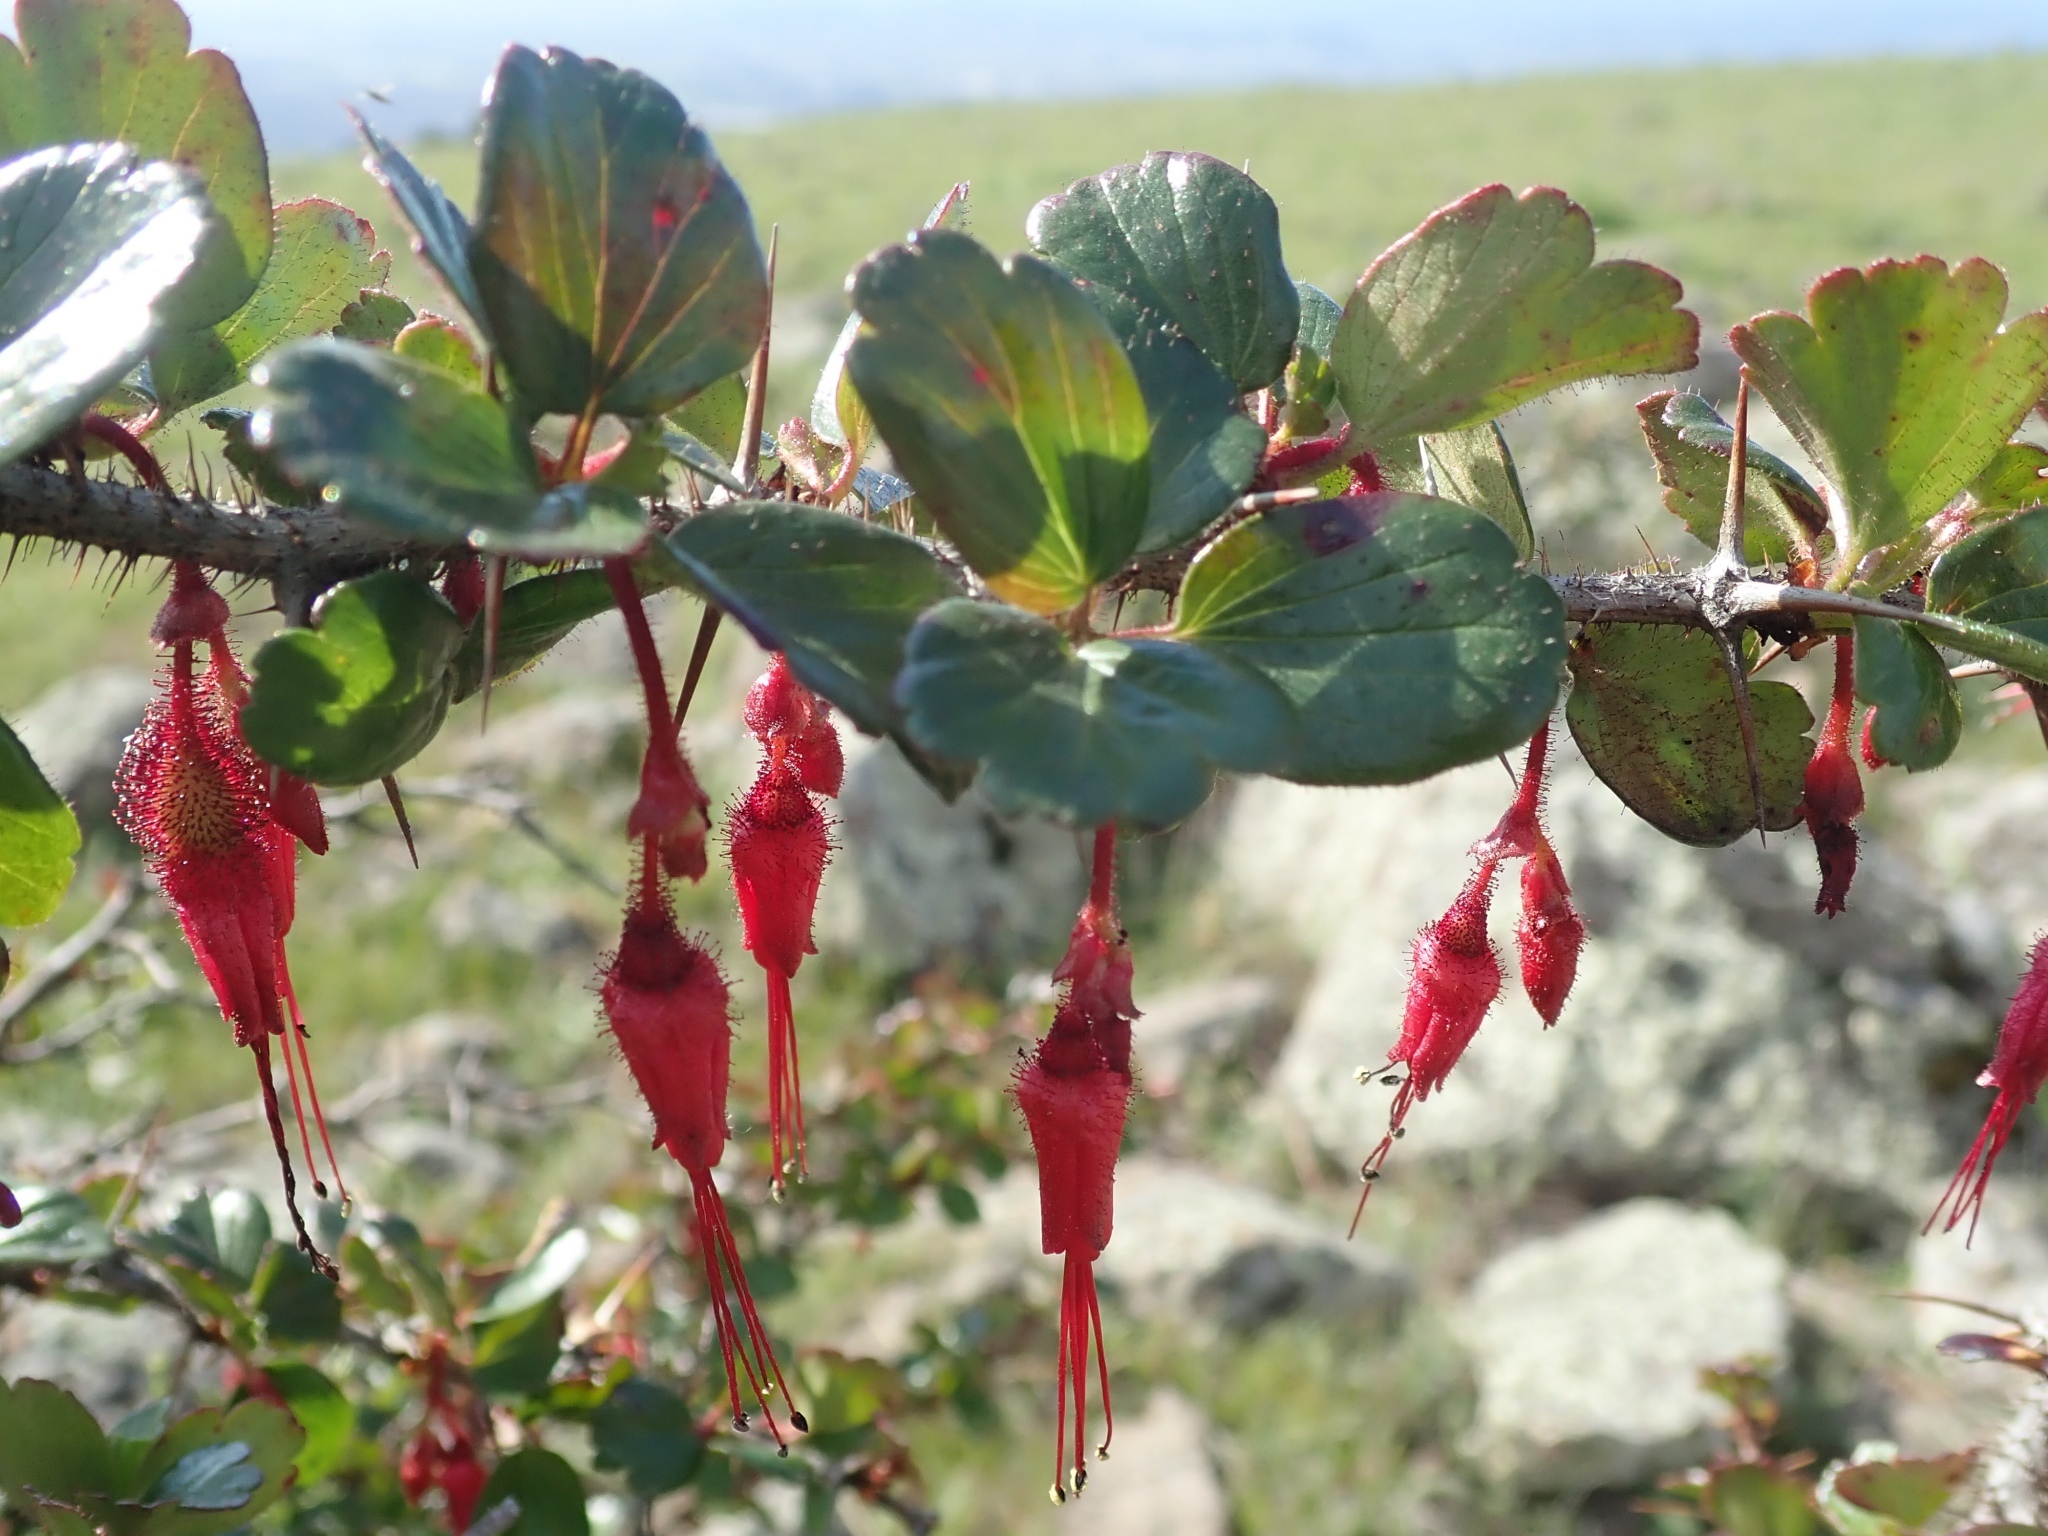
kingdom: Plantae
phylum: Tracheophyta
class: Magnoliopsida
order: Saxifragales
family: Grossulariaceae
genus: Ribes
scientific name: Ribes speciosum
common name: Fuchsia-flower gooseberry
